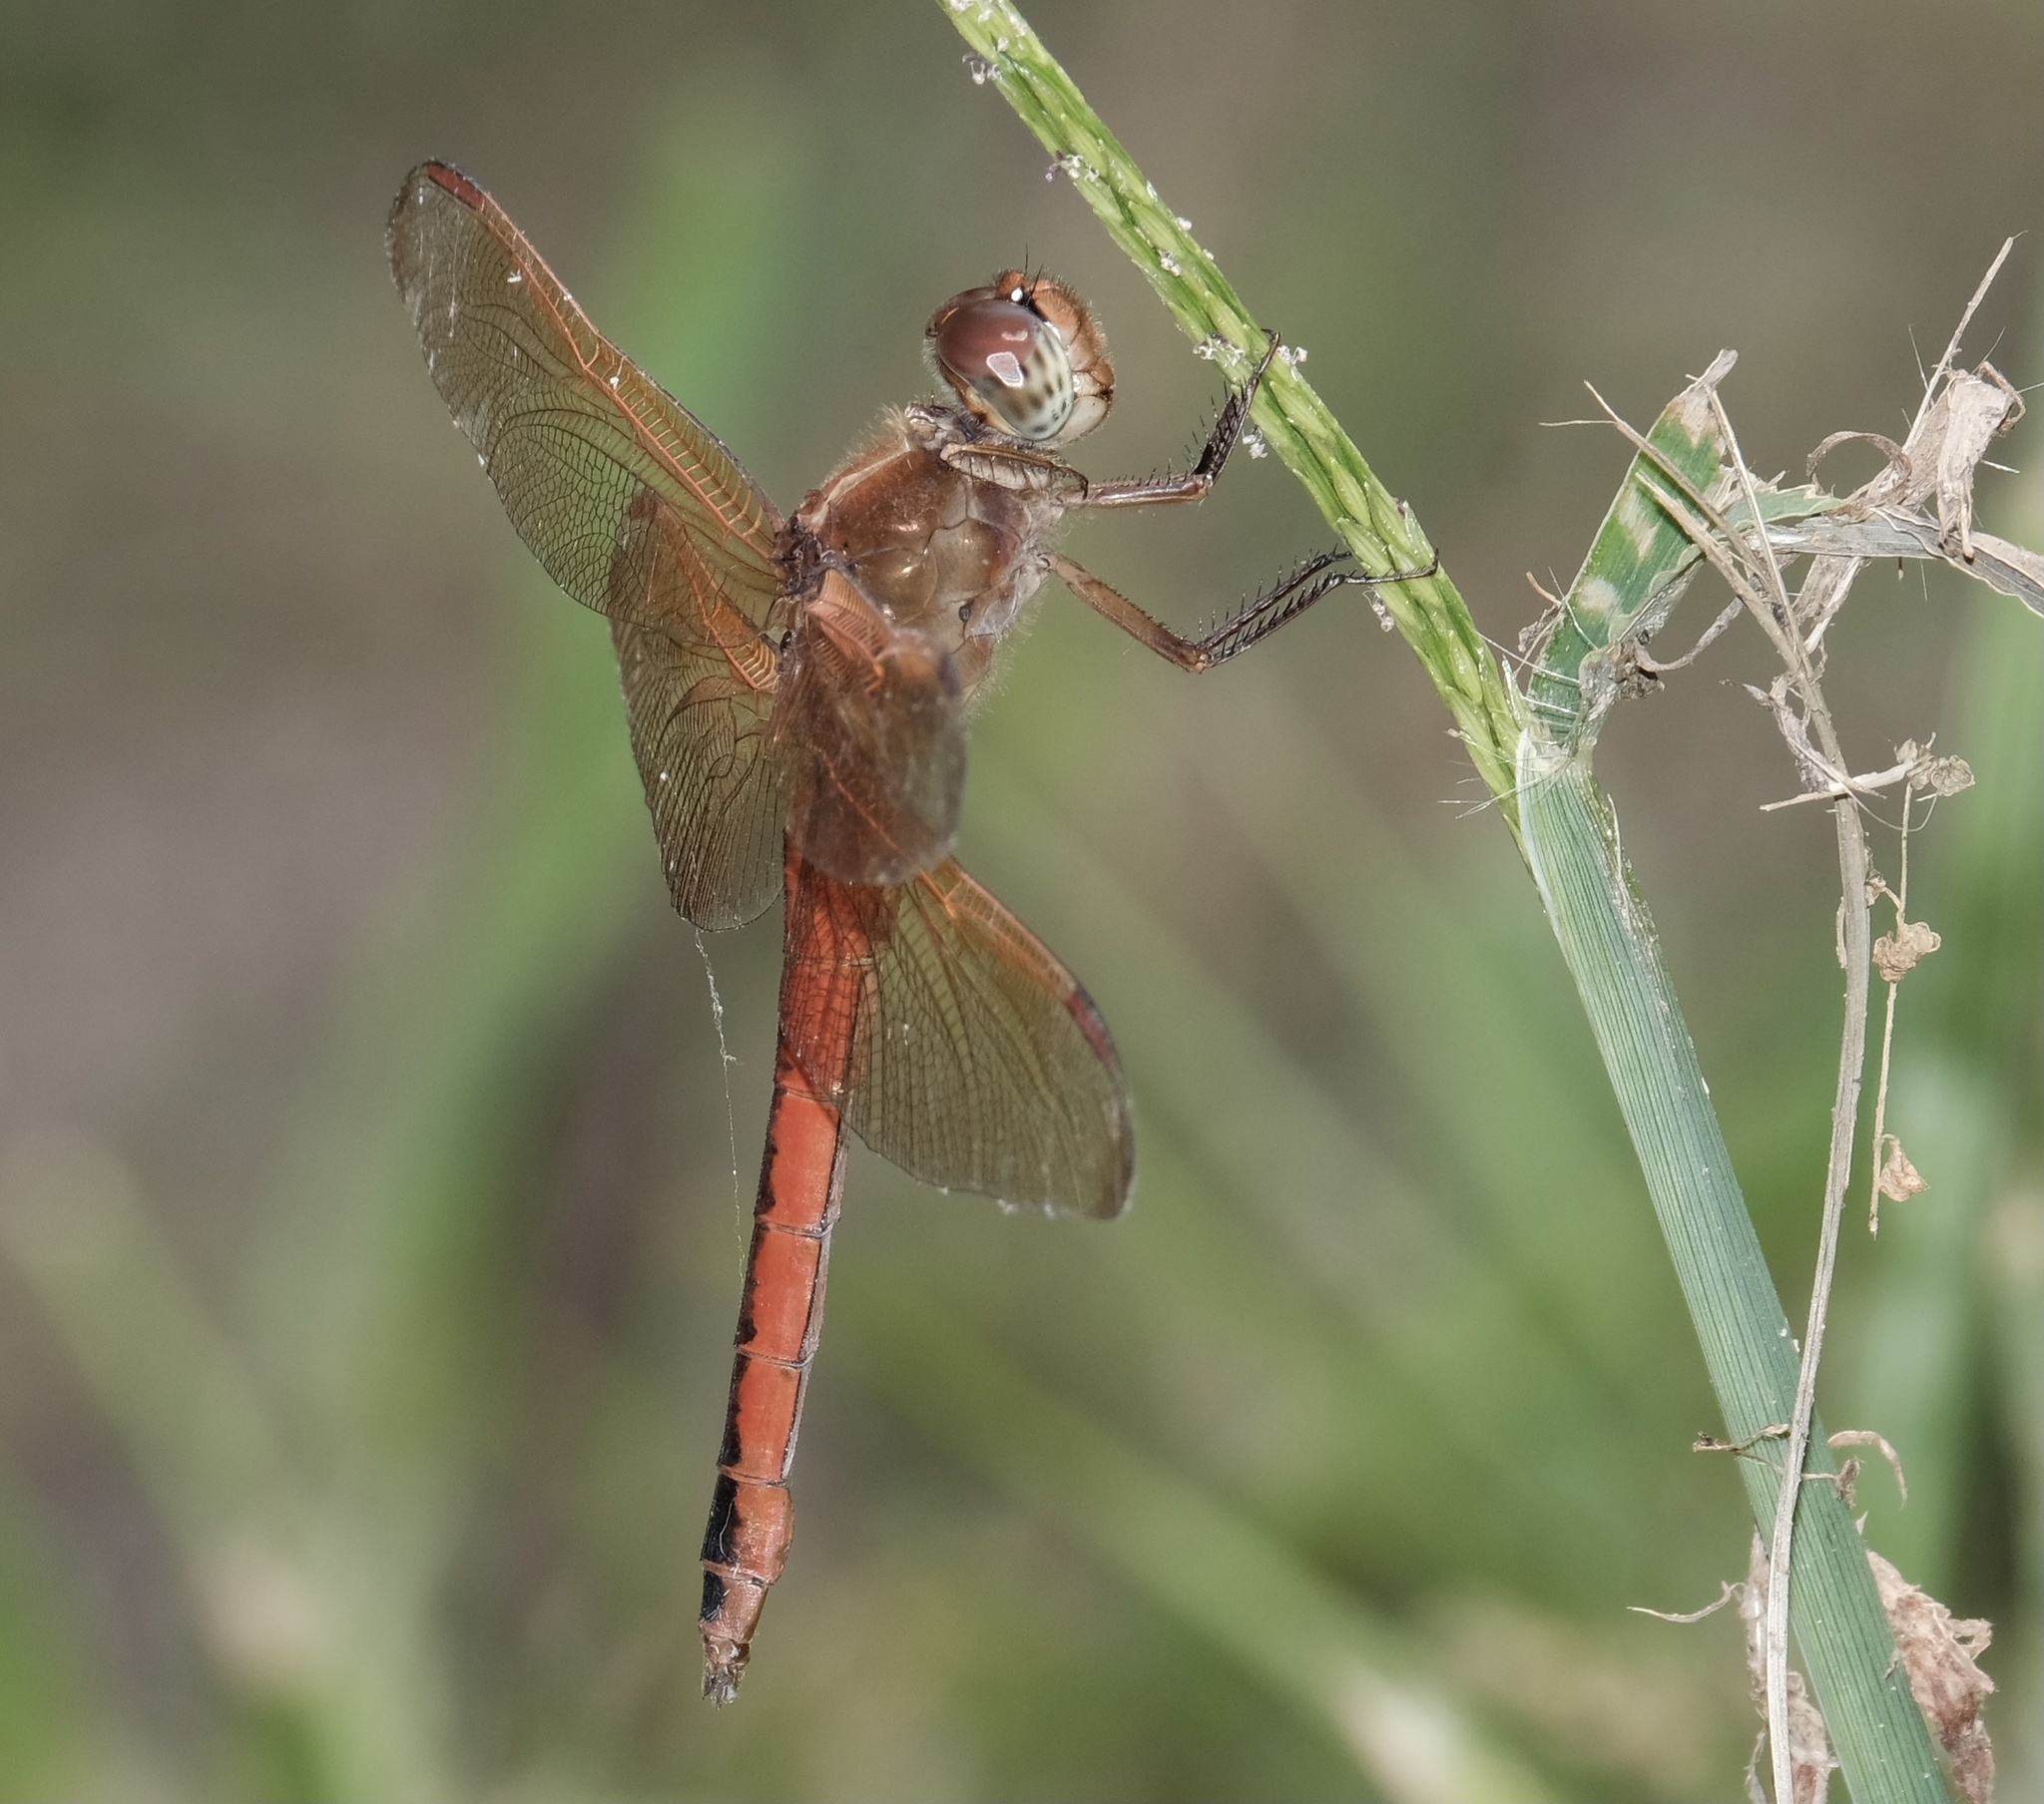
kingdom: Animalia
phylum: Arthropoda
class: Insecta
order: Odonata
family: Libellulidae
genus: Libellula
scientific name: Libellula needhami
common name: Needham's skimmer
